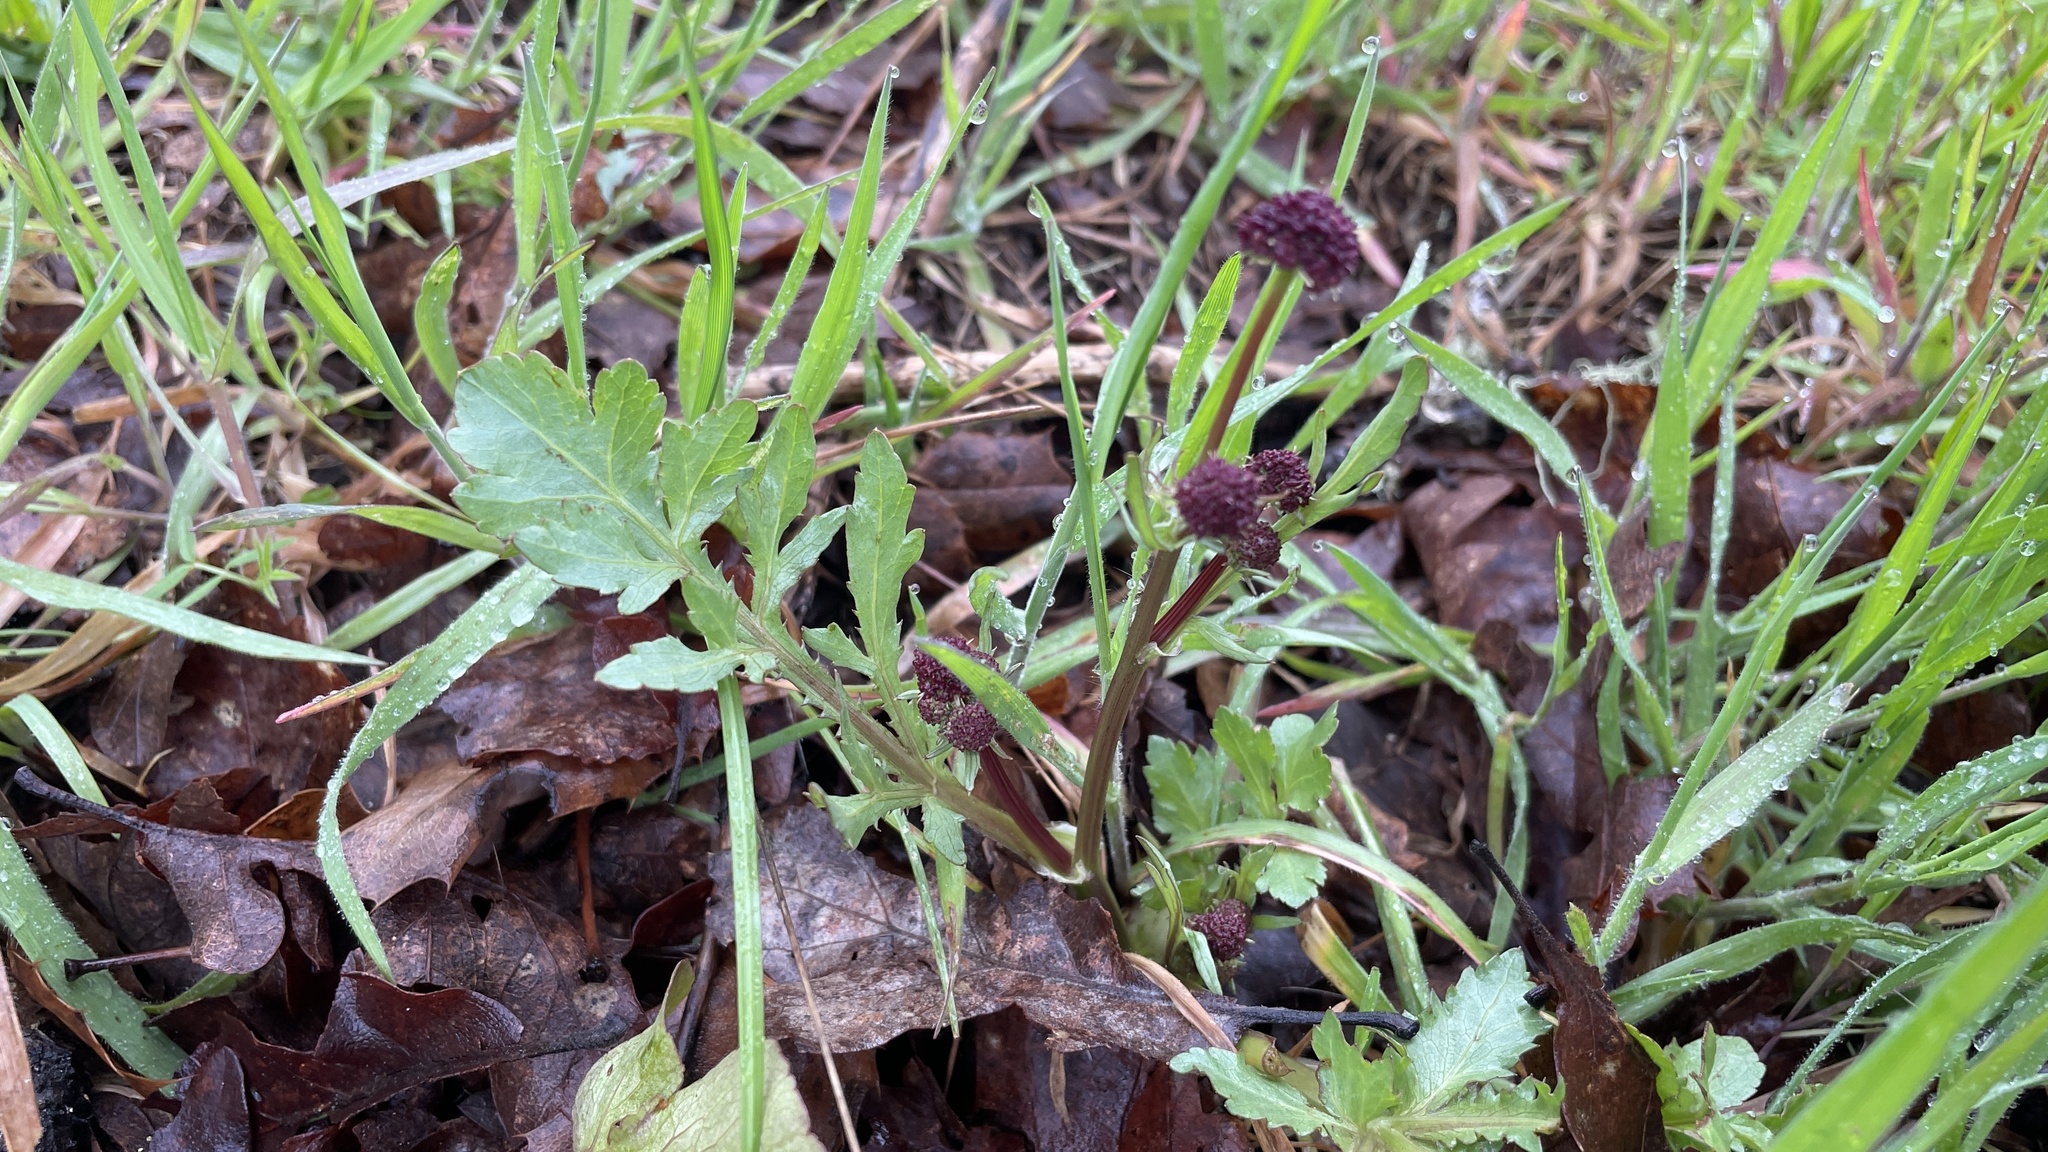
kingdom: Plantae
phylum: Tracheophyta
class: Magnoliopsida
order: Apiales
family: Apiaceae
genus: Sanicula
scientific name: Sanicula bipinnatifida
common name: Shoe-buttons
